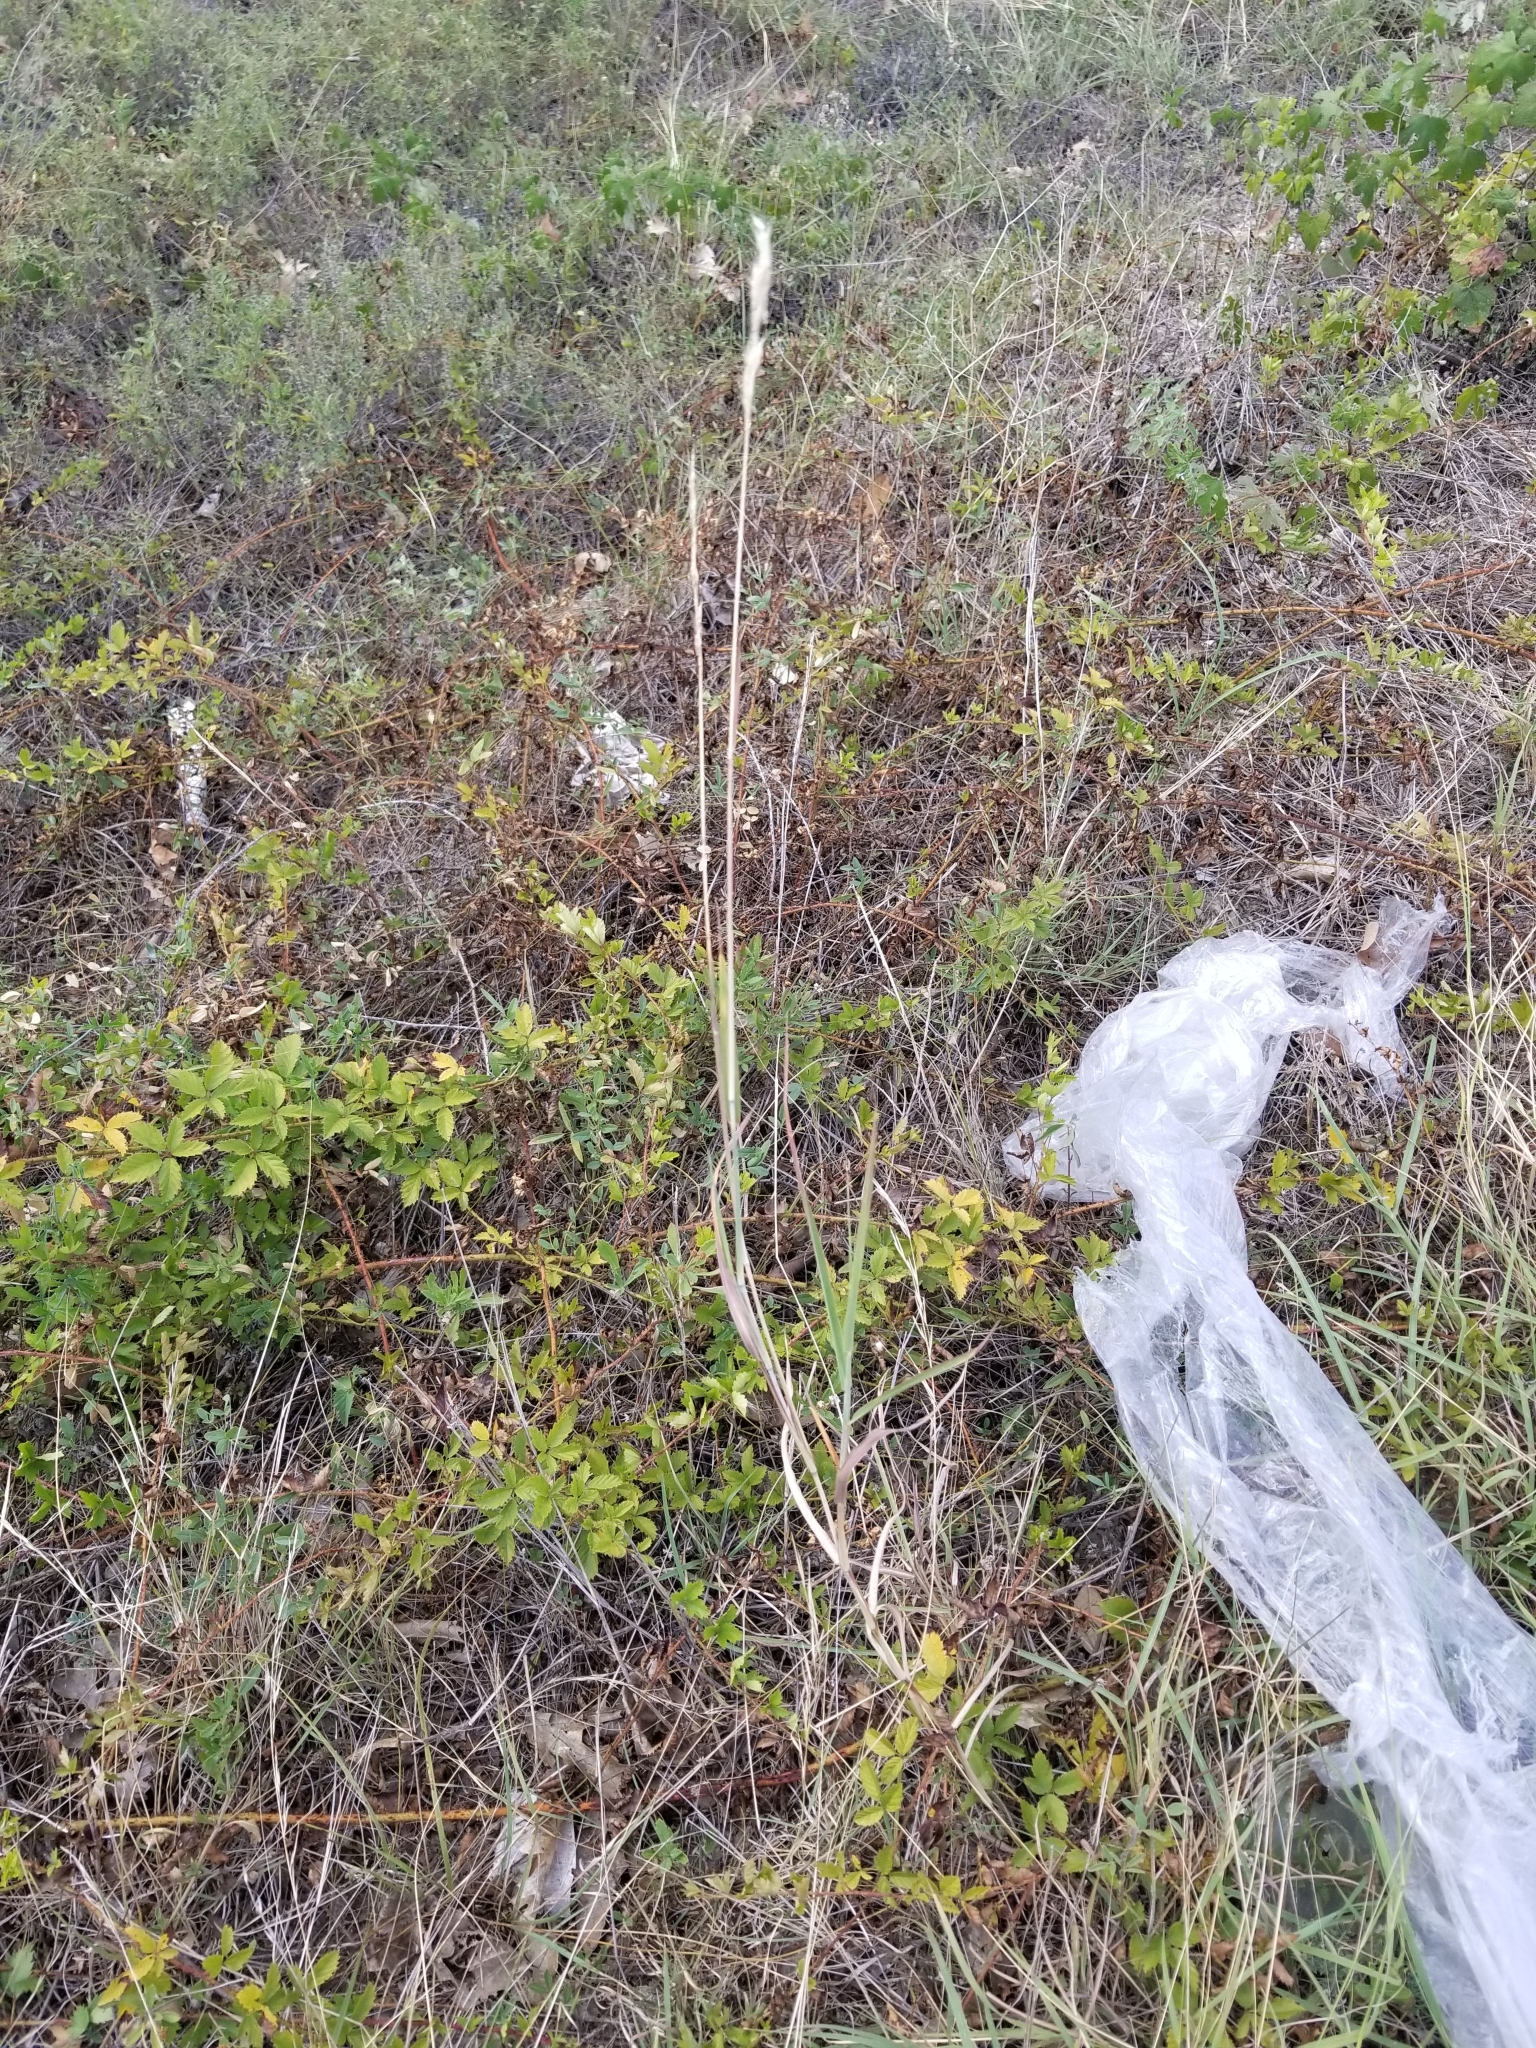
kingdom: Plantae
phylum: Tracheophyta
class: Liliopsida
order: Poales
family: Poaceae
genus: Bothriochloa
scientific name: Bothriochloa torreyana
